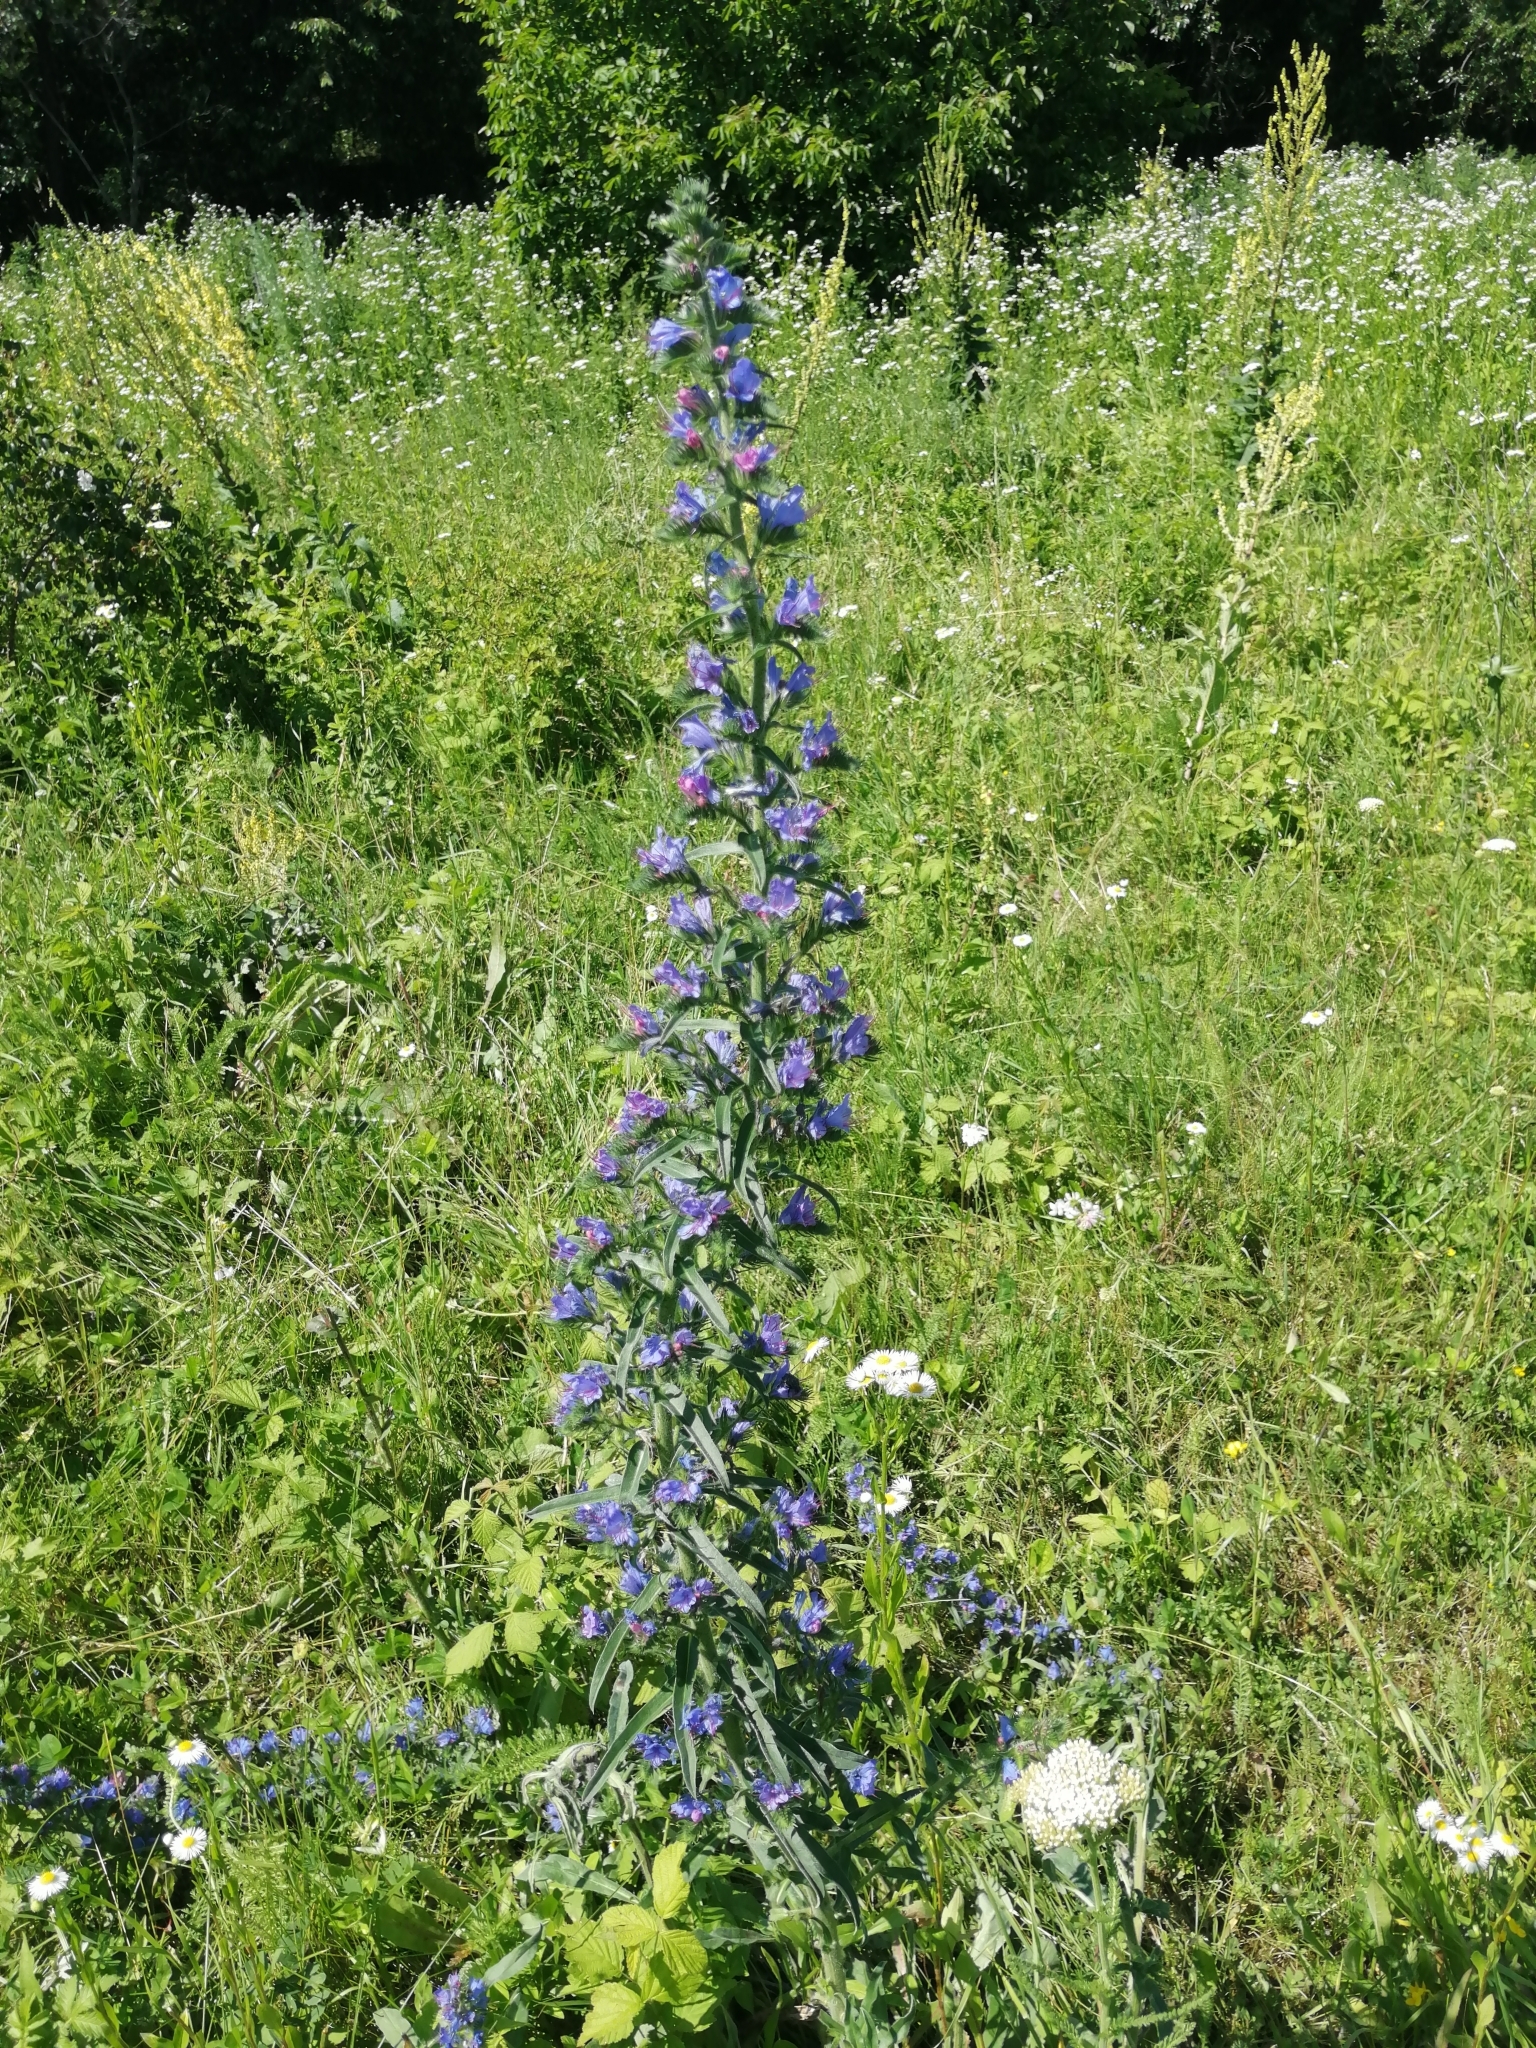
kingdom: Plantae
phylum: Tracheophyta
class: Magnoliopsida
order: Boraginales
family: Boraginaceae
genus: Echium
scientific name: Echium vulgare
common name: Common viper's bugloss
